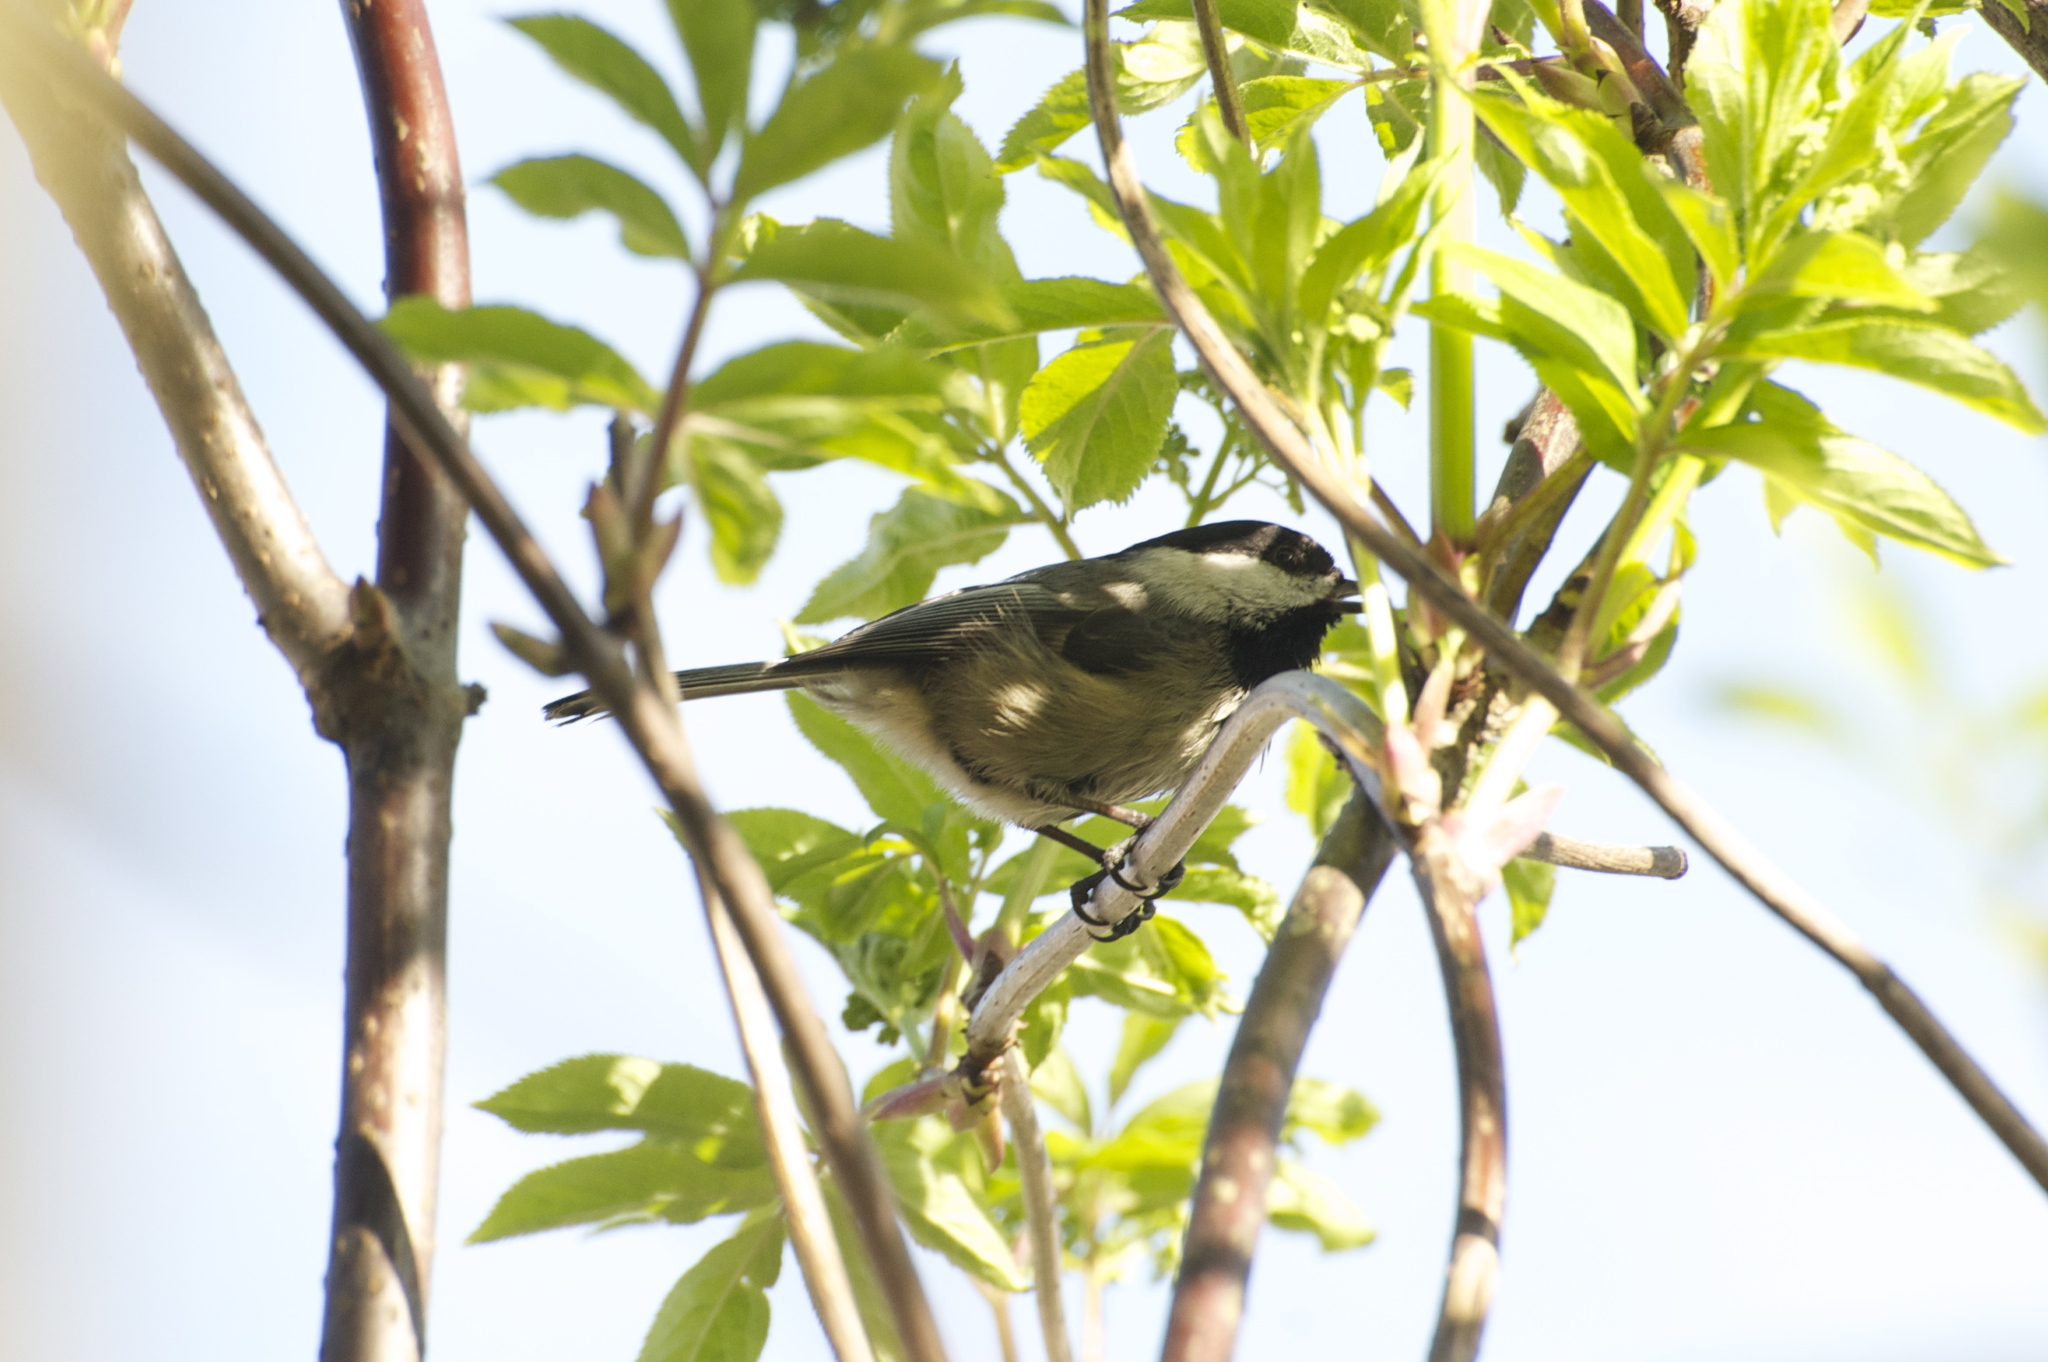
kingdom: Animalia
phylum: Chordata
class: Aves
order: Passeriformes
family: Paridae
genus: Poecile
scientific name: Poecile atricapillus
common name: Black-capped chickadee
